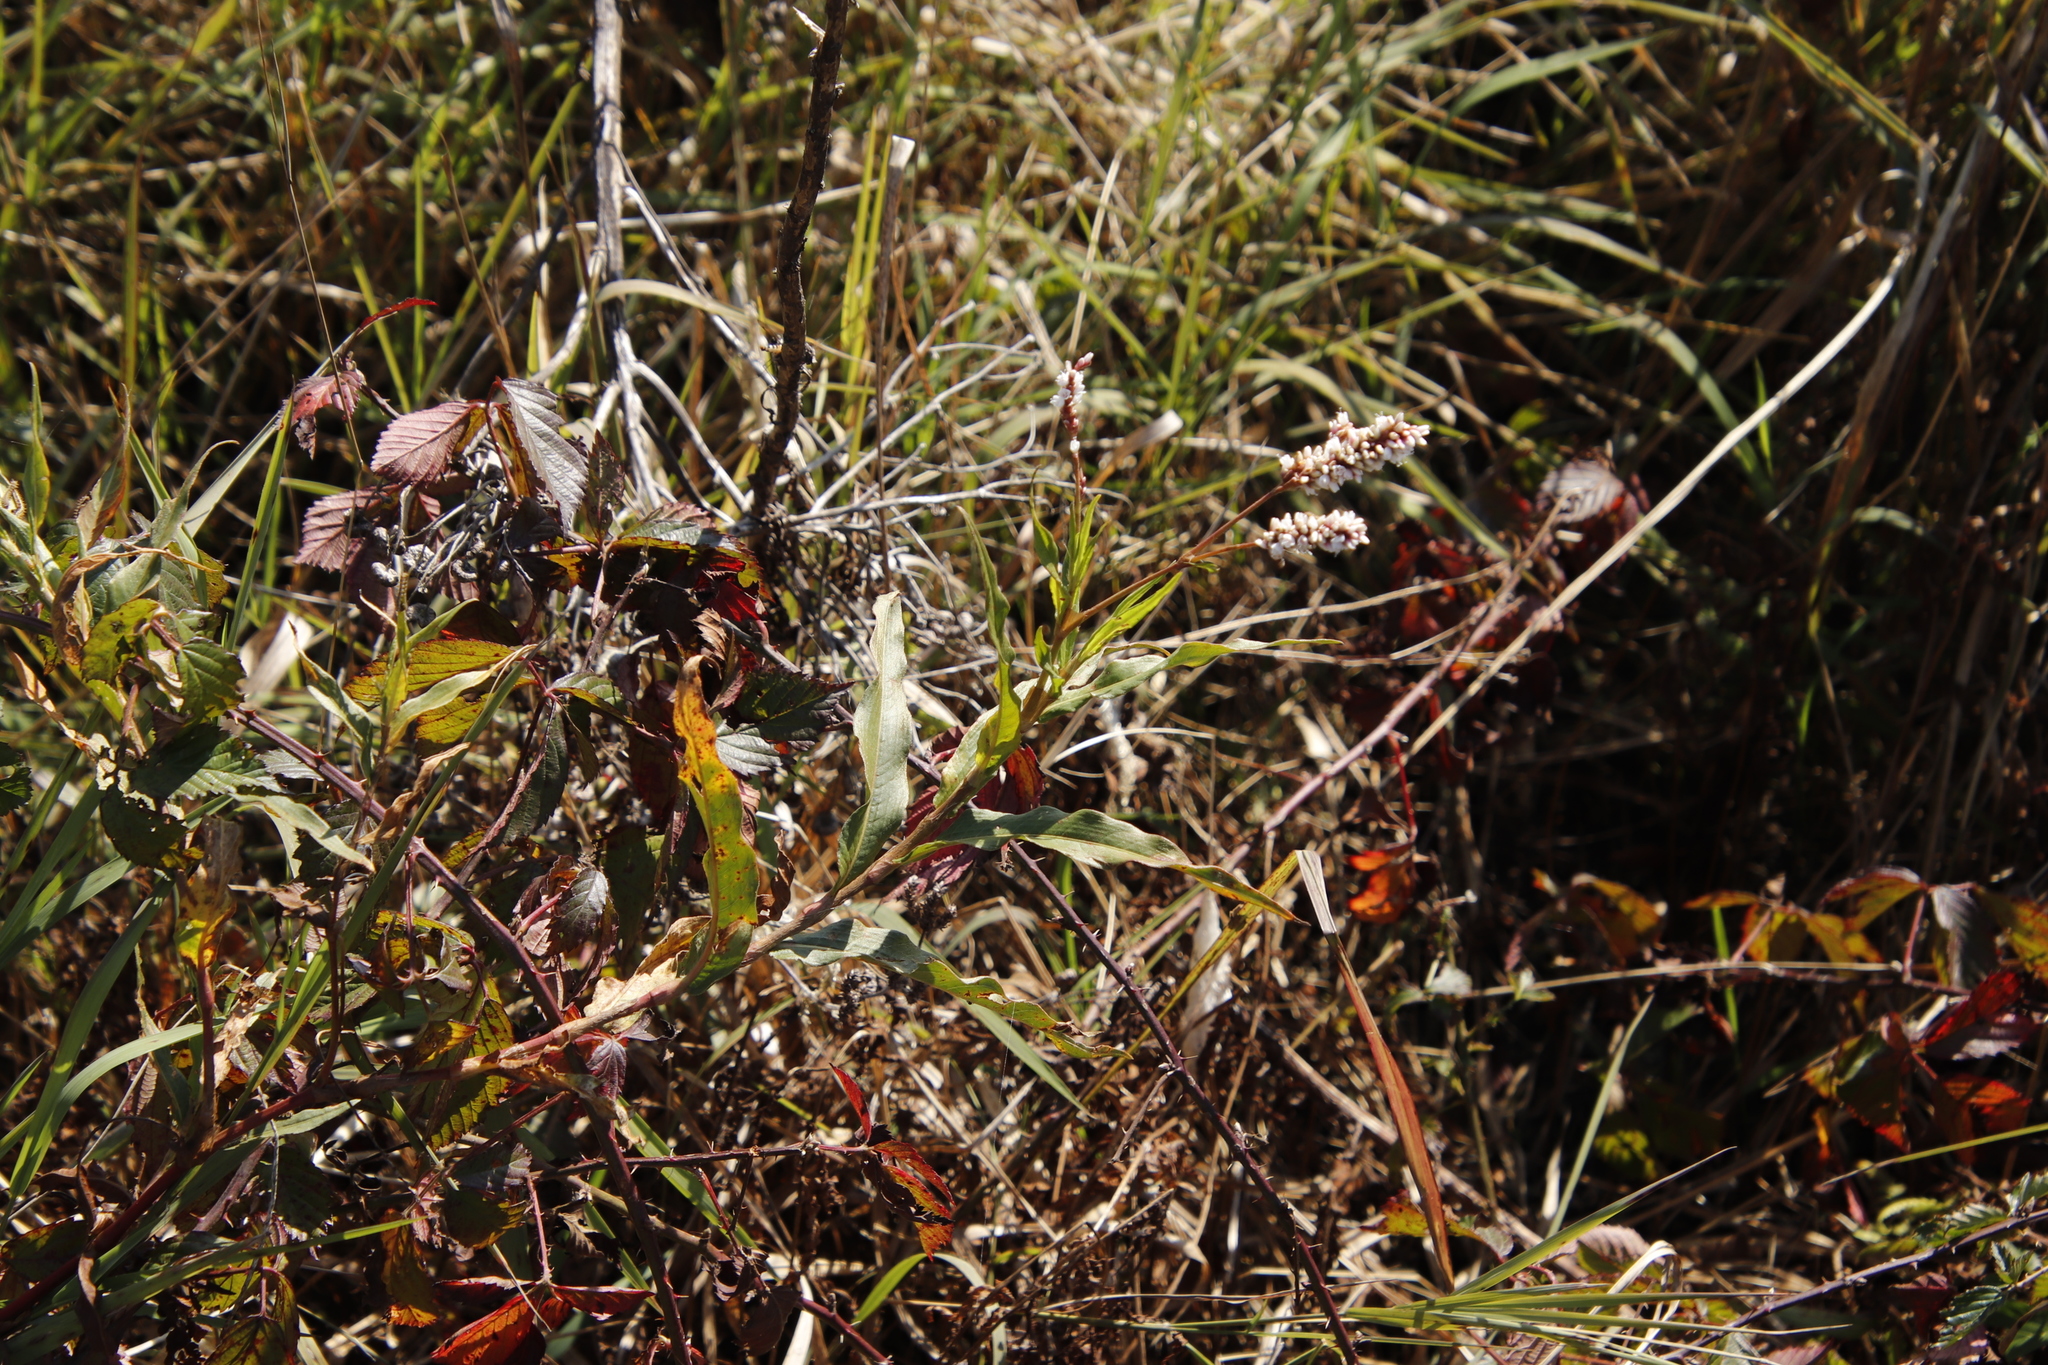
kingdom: Plantae
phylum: Tracheophyta
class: Magnoliopsida
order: Caryophyllales
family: Polygonaceae
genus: Persicaria
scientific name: Persicaria senegalensis
